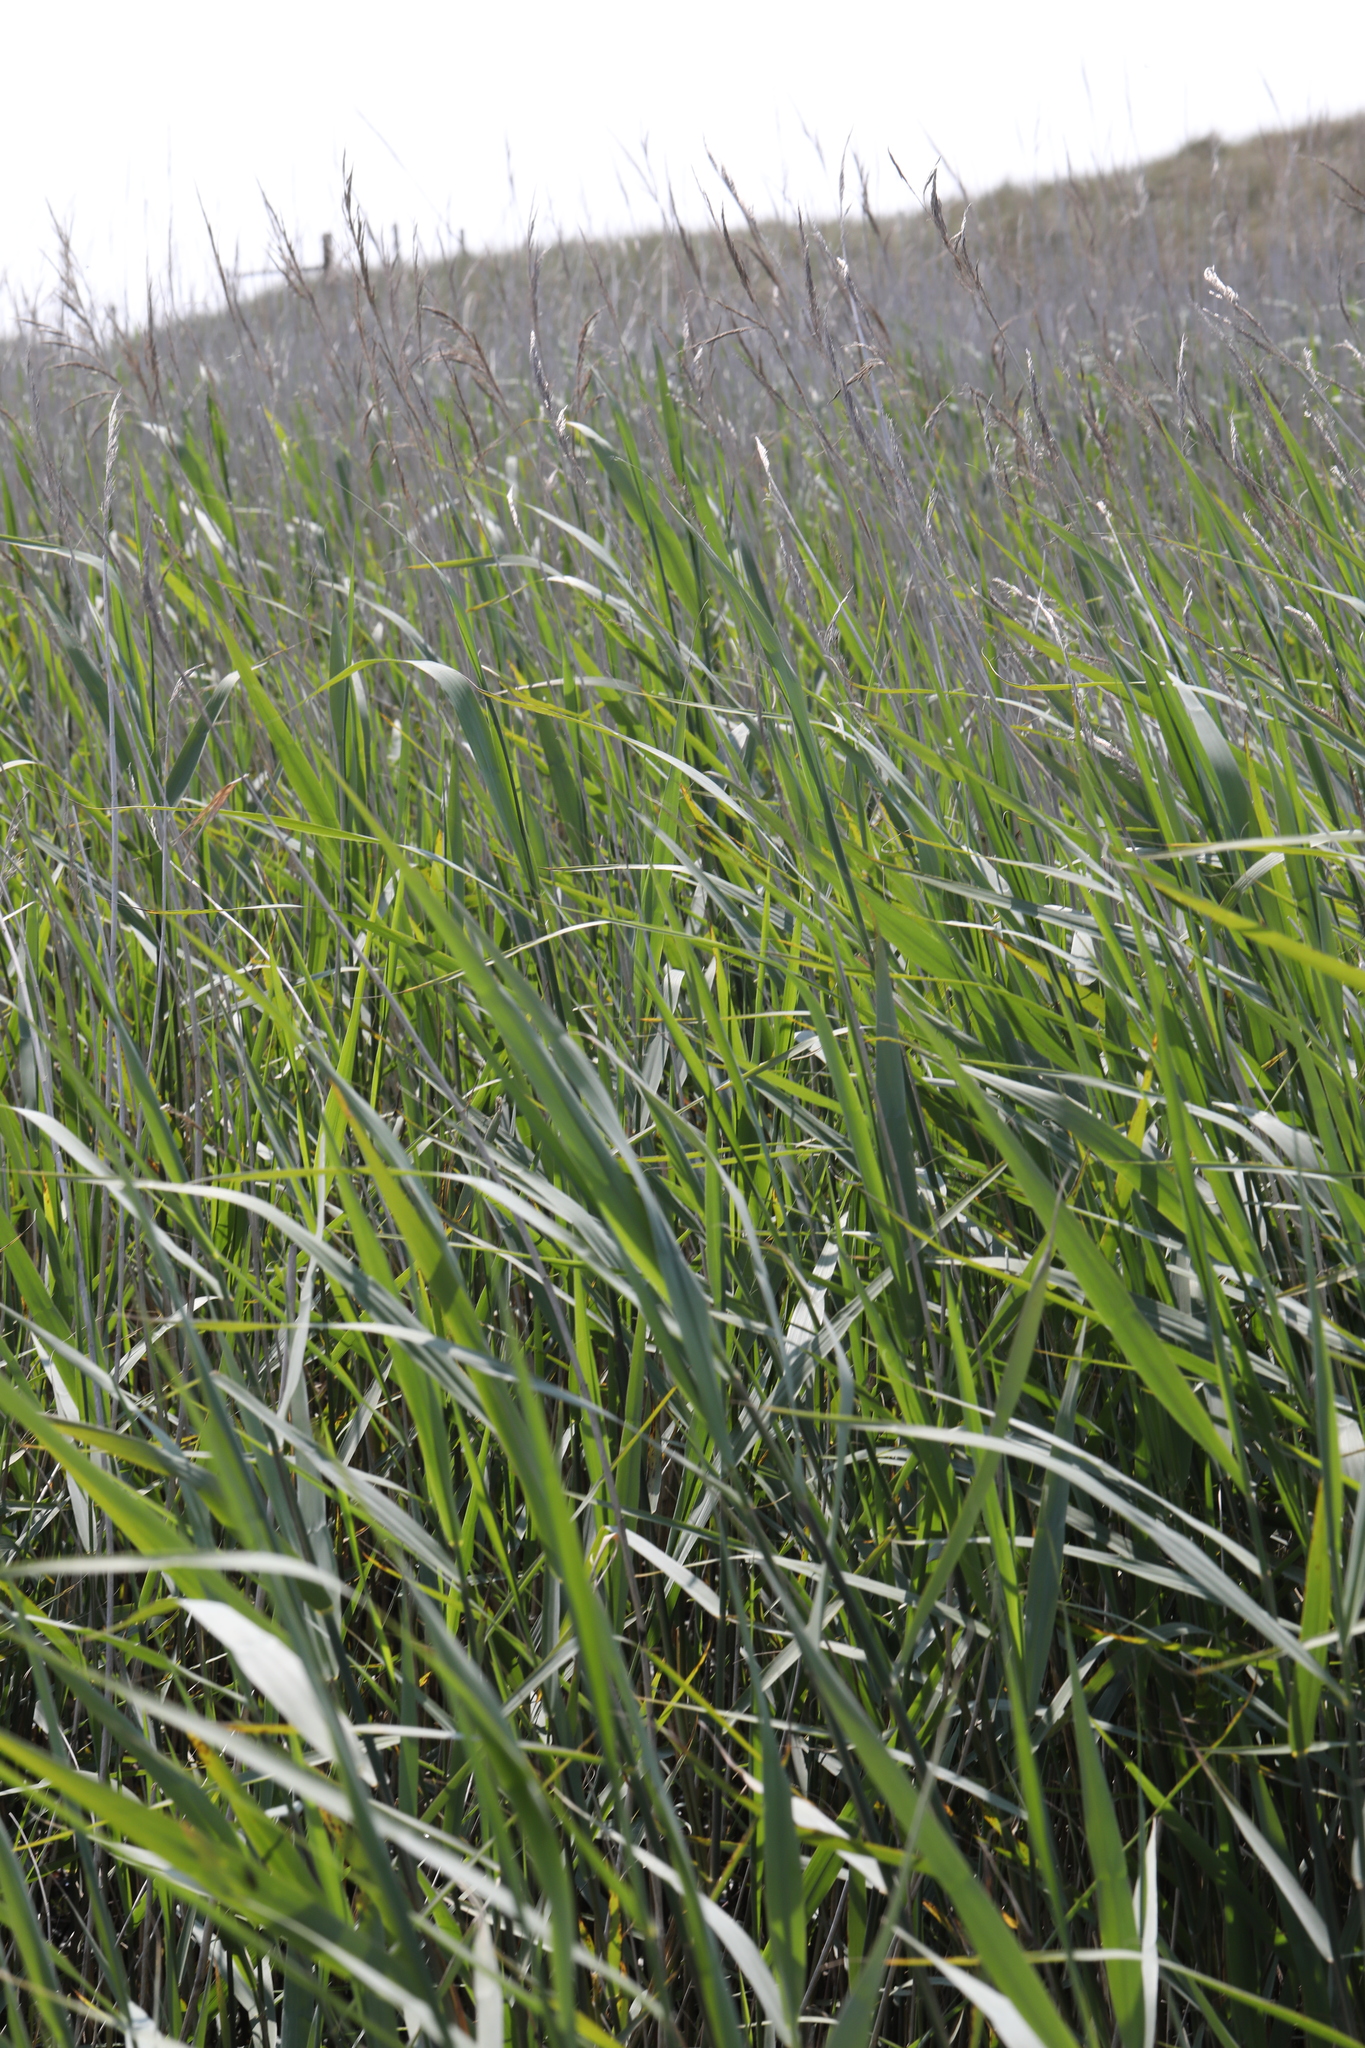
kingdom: Plantae
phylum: Tracheophyta
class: Liliopsida
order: Poales
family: Poaceae
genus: Phragmites
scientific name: Phragmites australis
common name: Common reed
